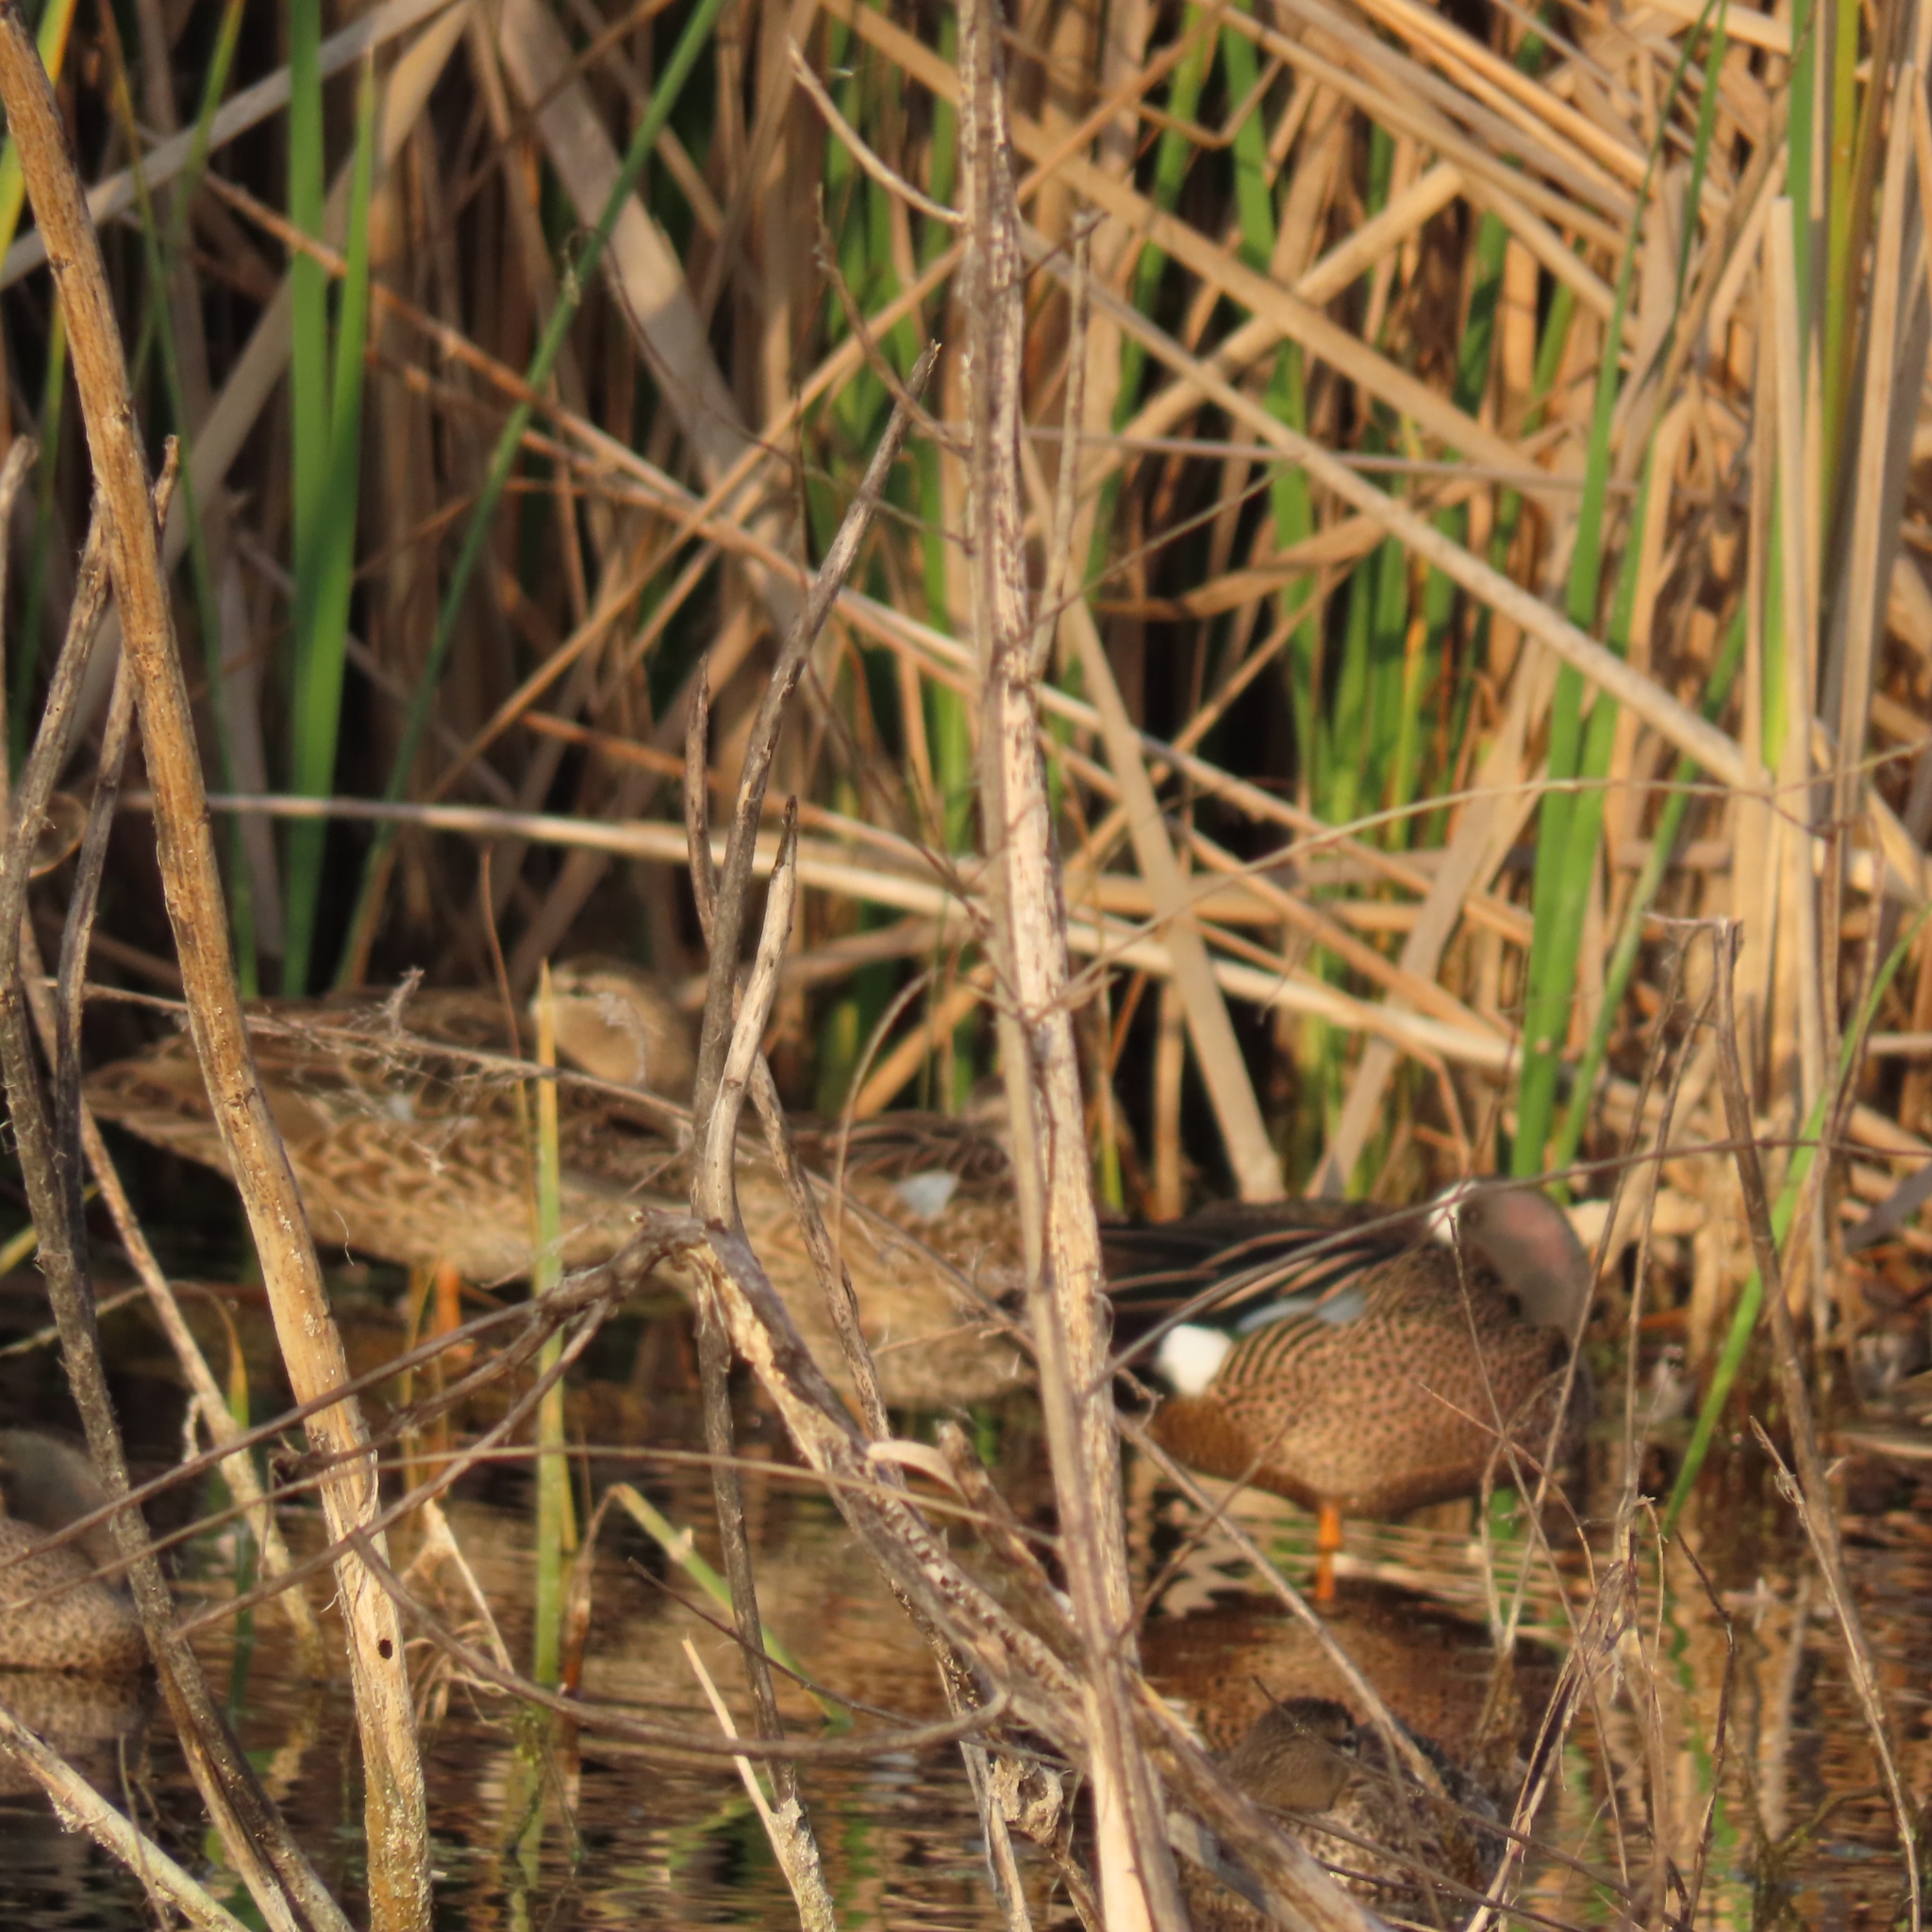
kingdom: Animalia
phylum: Chordata
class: Aves
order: Anseriformes
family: Anatidae
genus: Spatula
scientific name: Spatula discors
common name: Blue-winged teal
